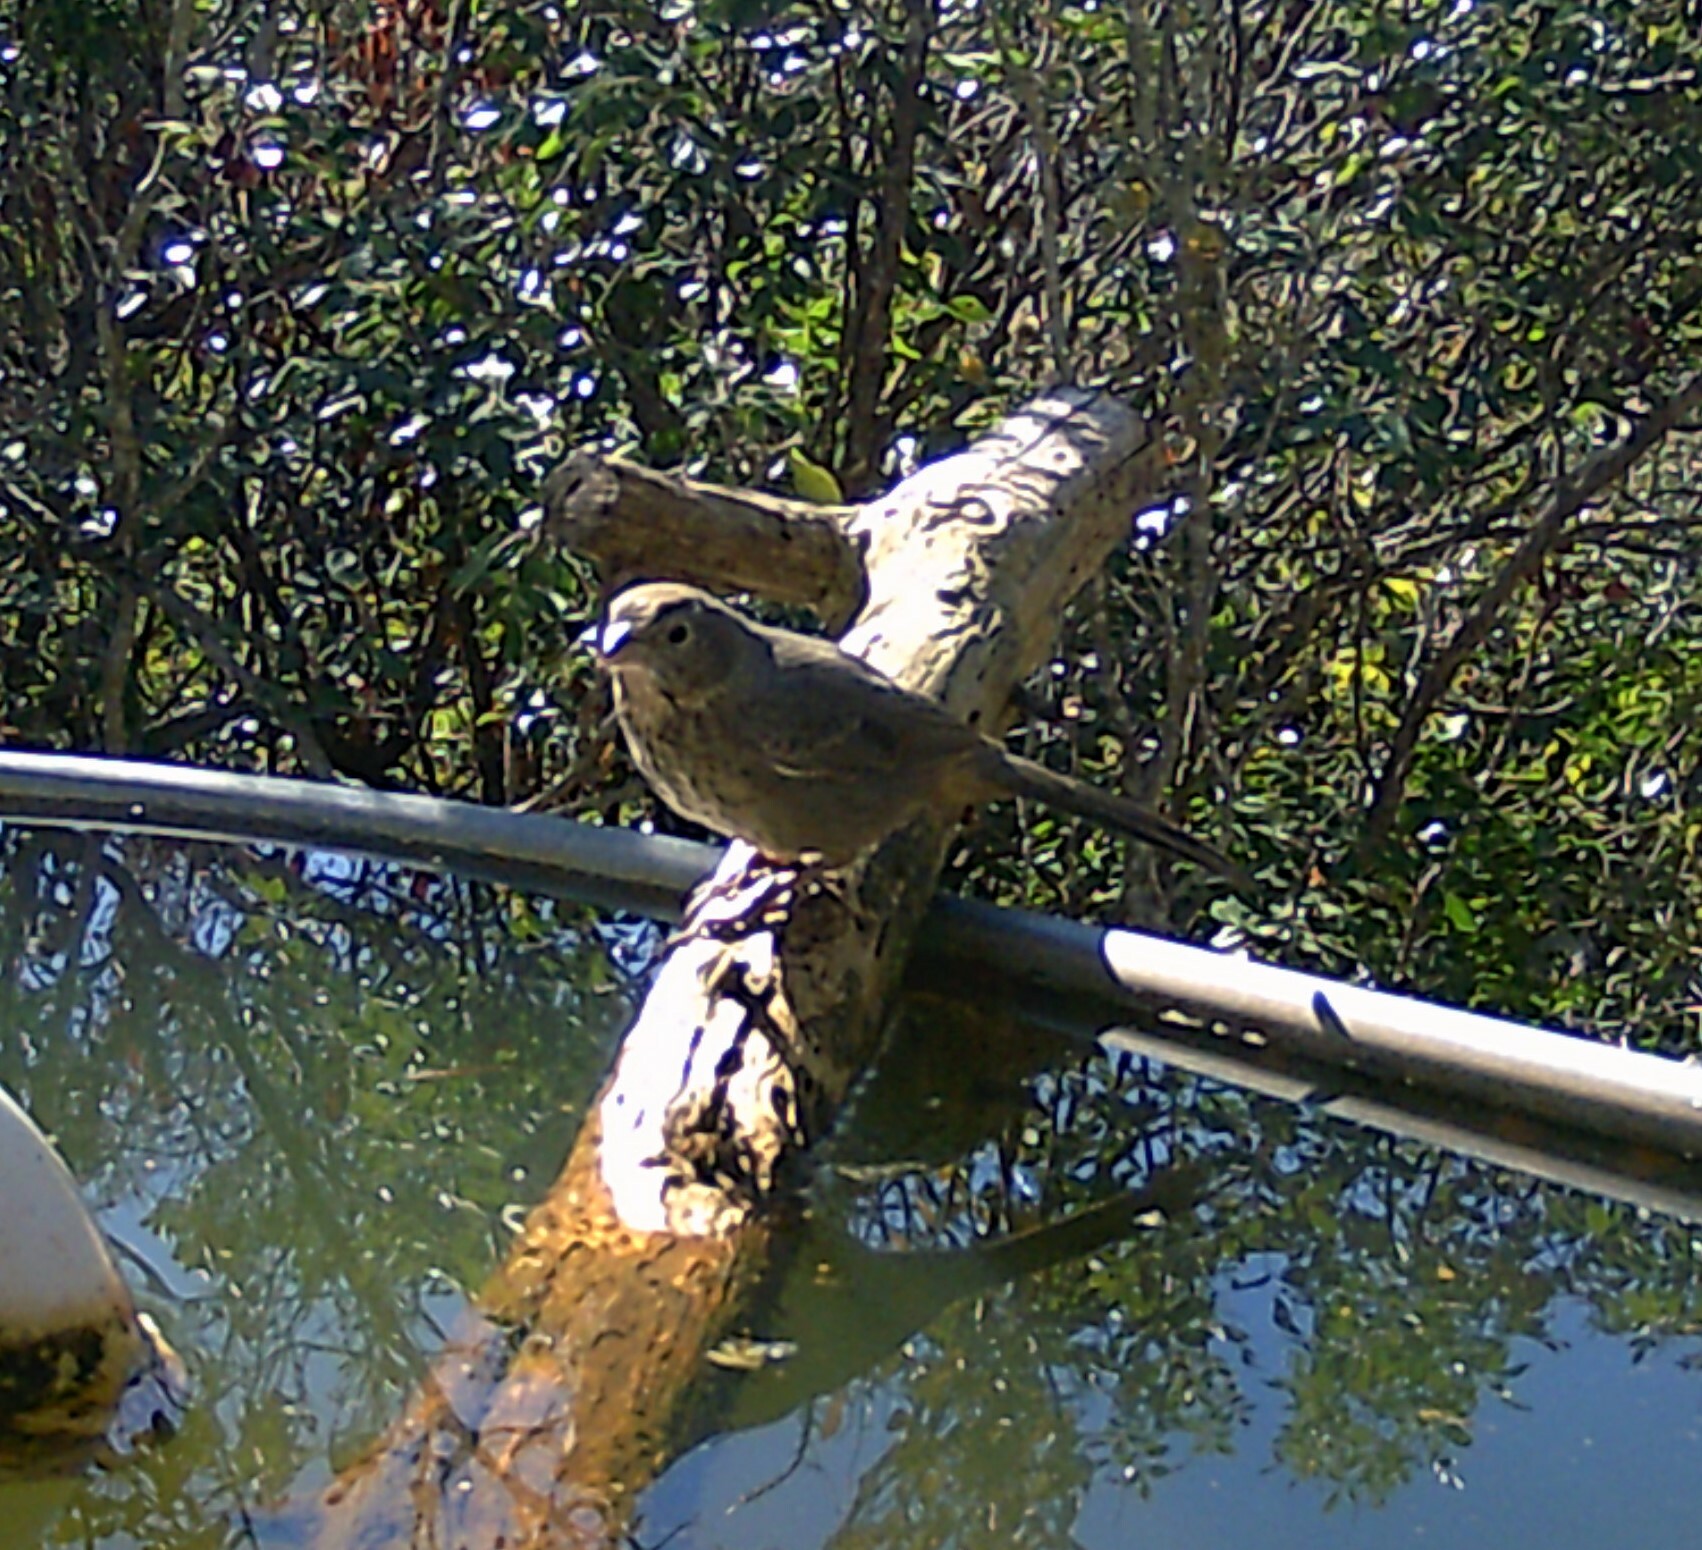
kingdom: Animalia
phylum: Chordata
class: Aves
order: Passeriformes
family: Passerellidae
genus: Melozone
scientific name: Melozone fusca
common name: Canyon towhee
